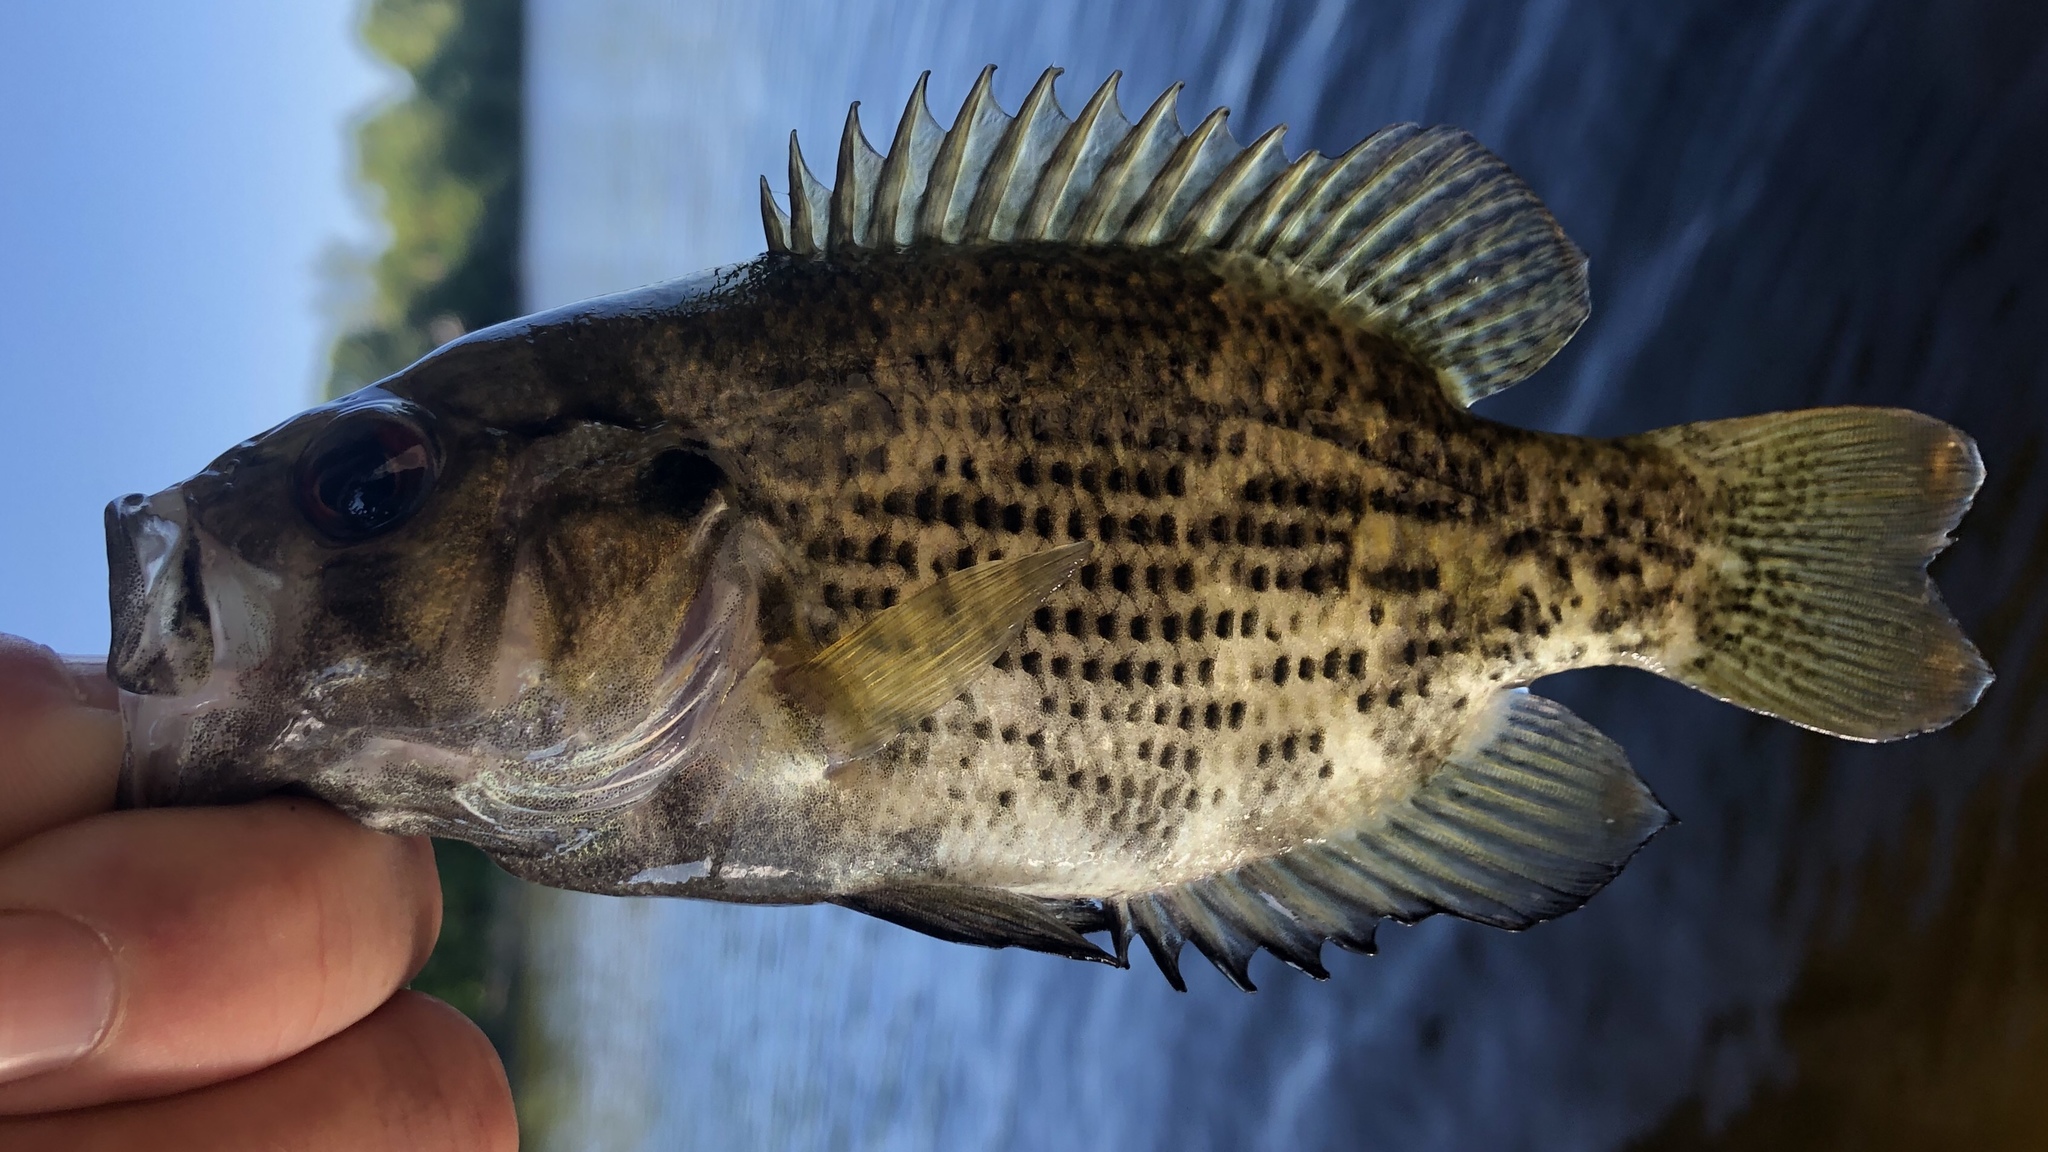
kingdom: Animalia
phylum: Chordata
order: Perciformes
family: Centrarchidae
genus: Ambloplites
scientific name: Ambloplites rupestris
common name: Rock bass
